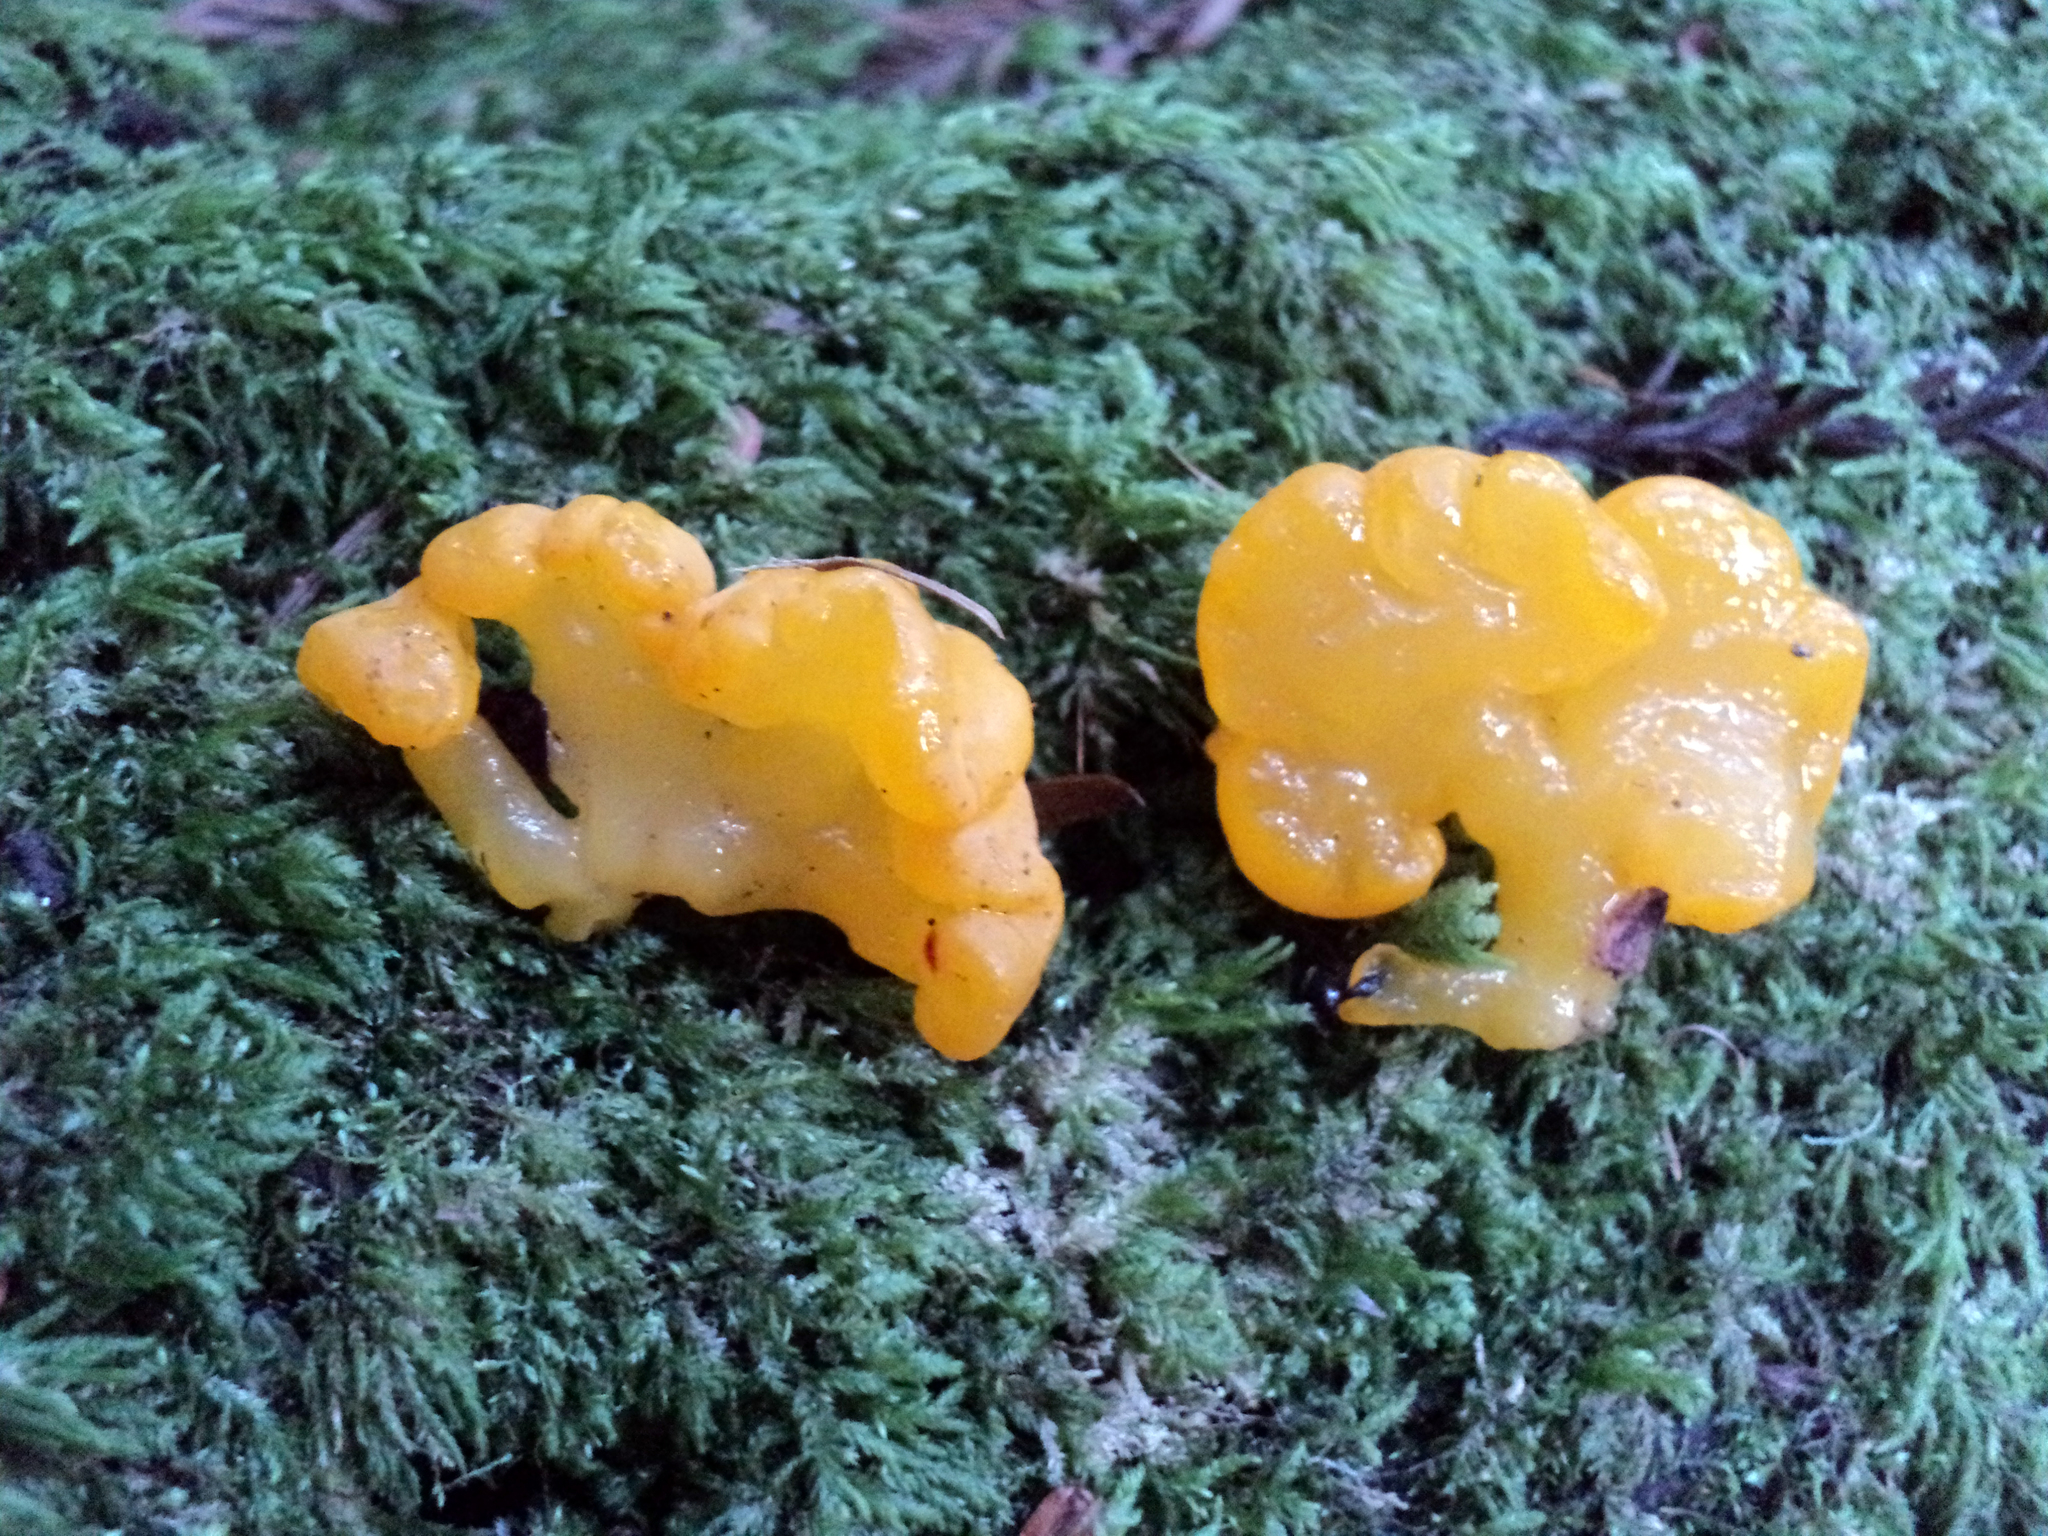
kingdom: Fungi
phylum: Basidiomycota
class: Dacrymycetes
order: Dacrymycetales
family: Dacrymycetaceae
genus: Dacrymyces
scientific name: Dacrymyces chrysospermus
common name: Orange jelly spot
